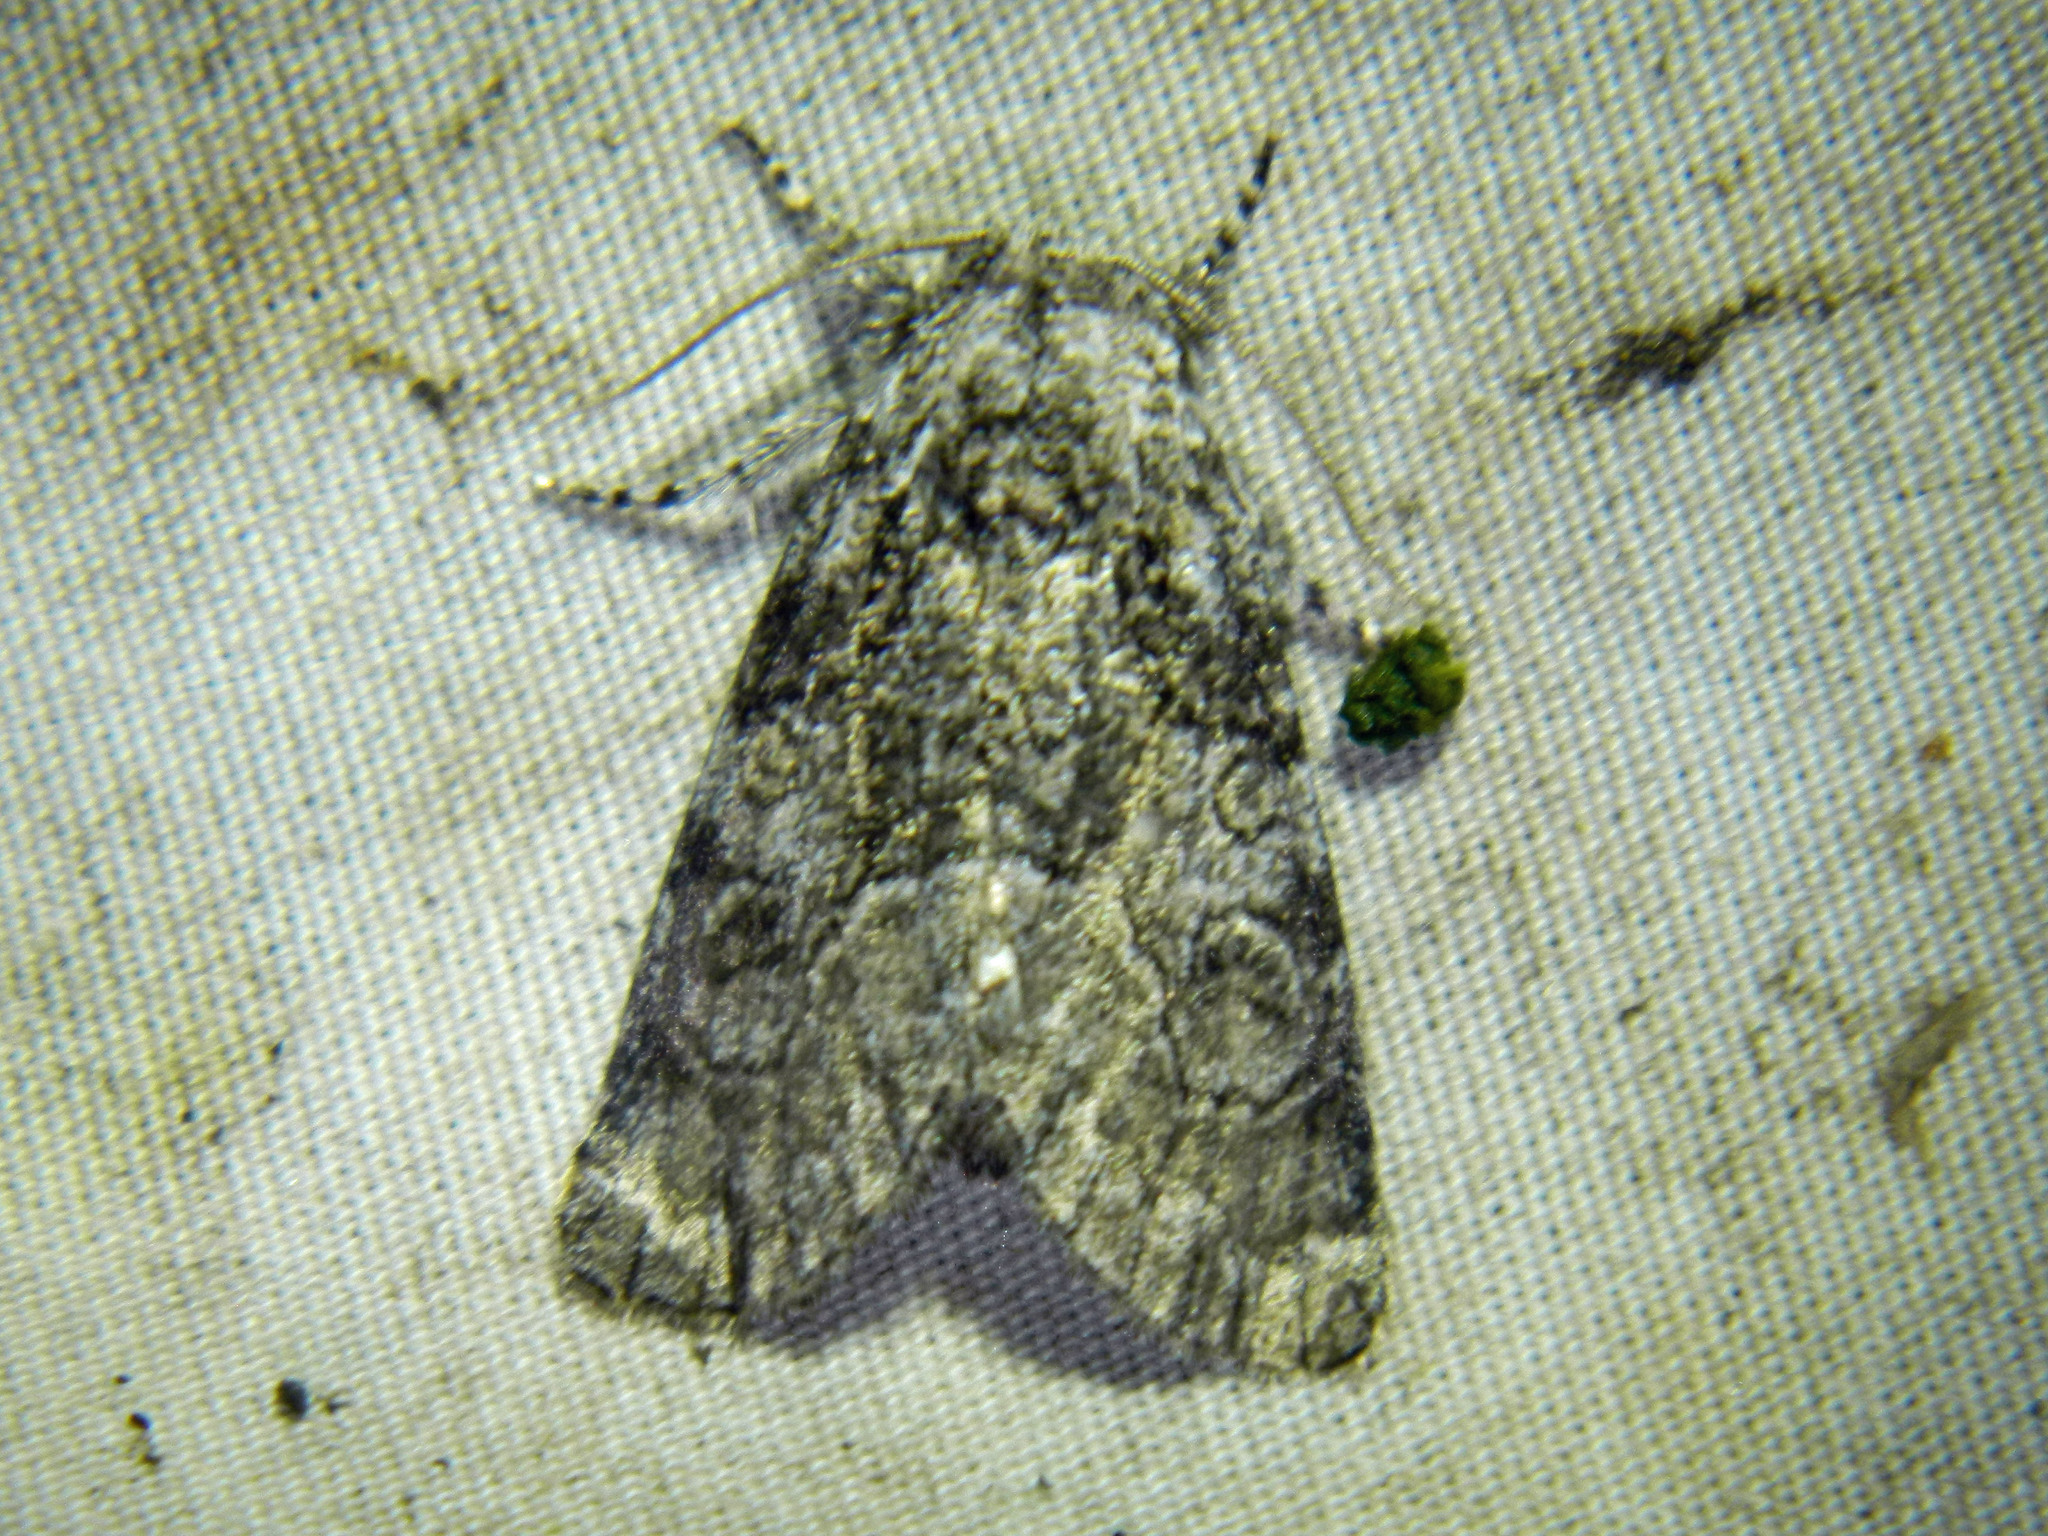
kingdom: Animalia
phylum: Arthropoda
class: Insecta
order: Lepidoptera
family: Noctuidae
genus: Raphia
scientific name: Raphia frater
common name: Brother
